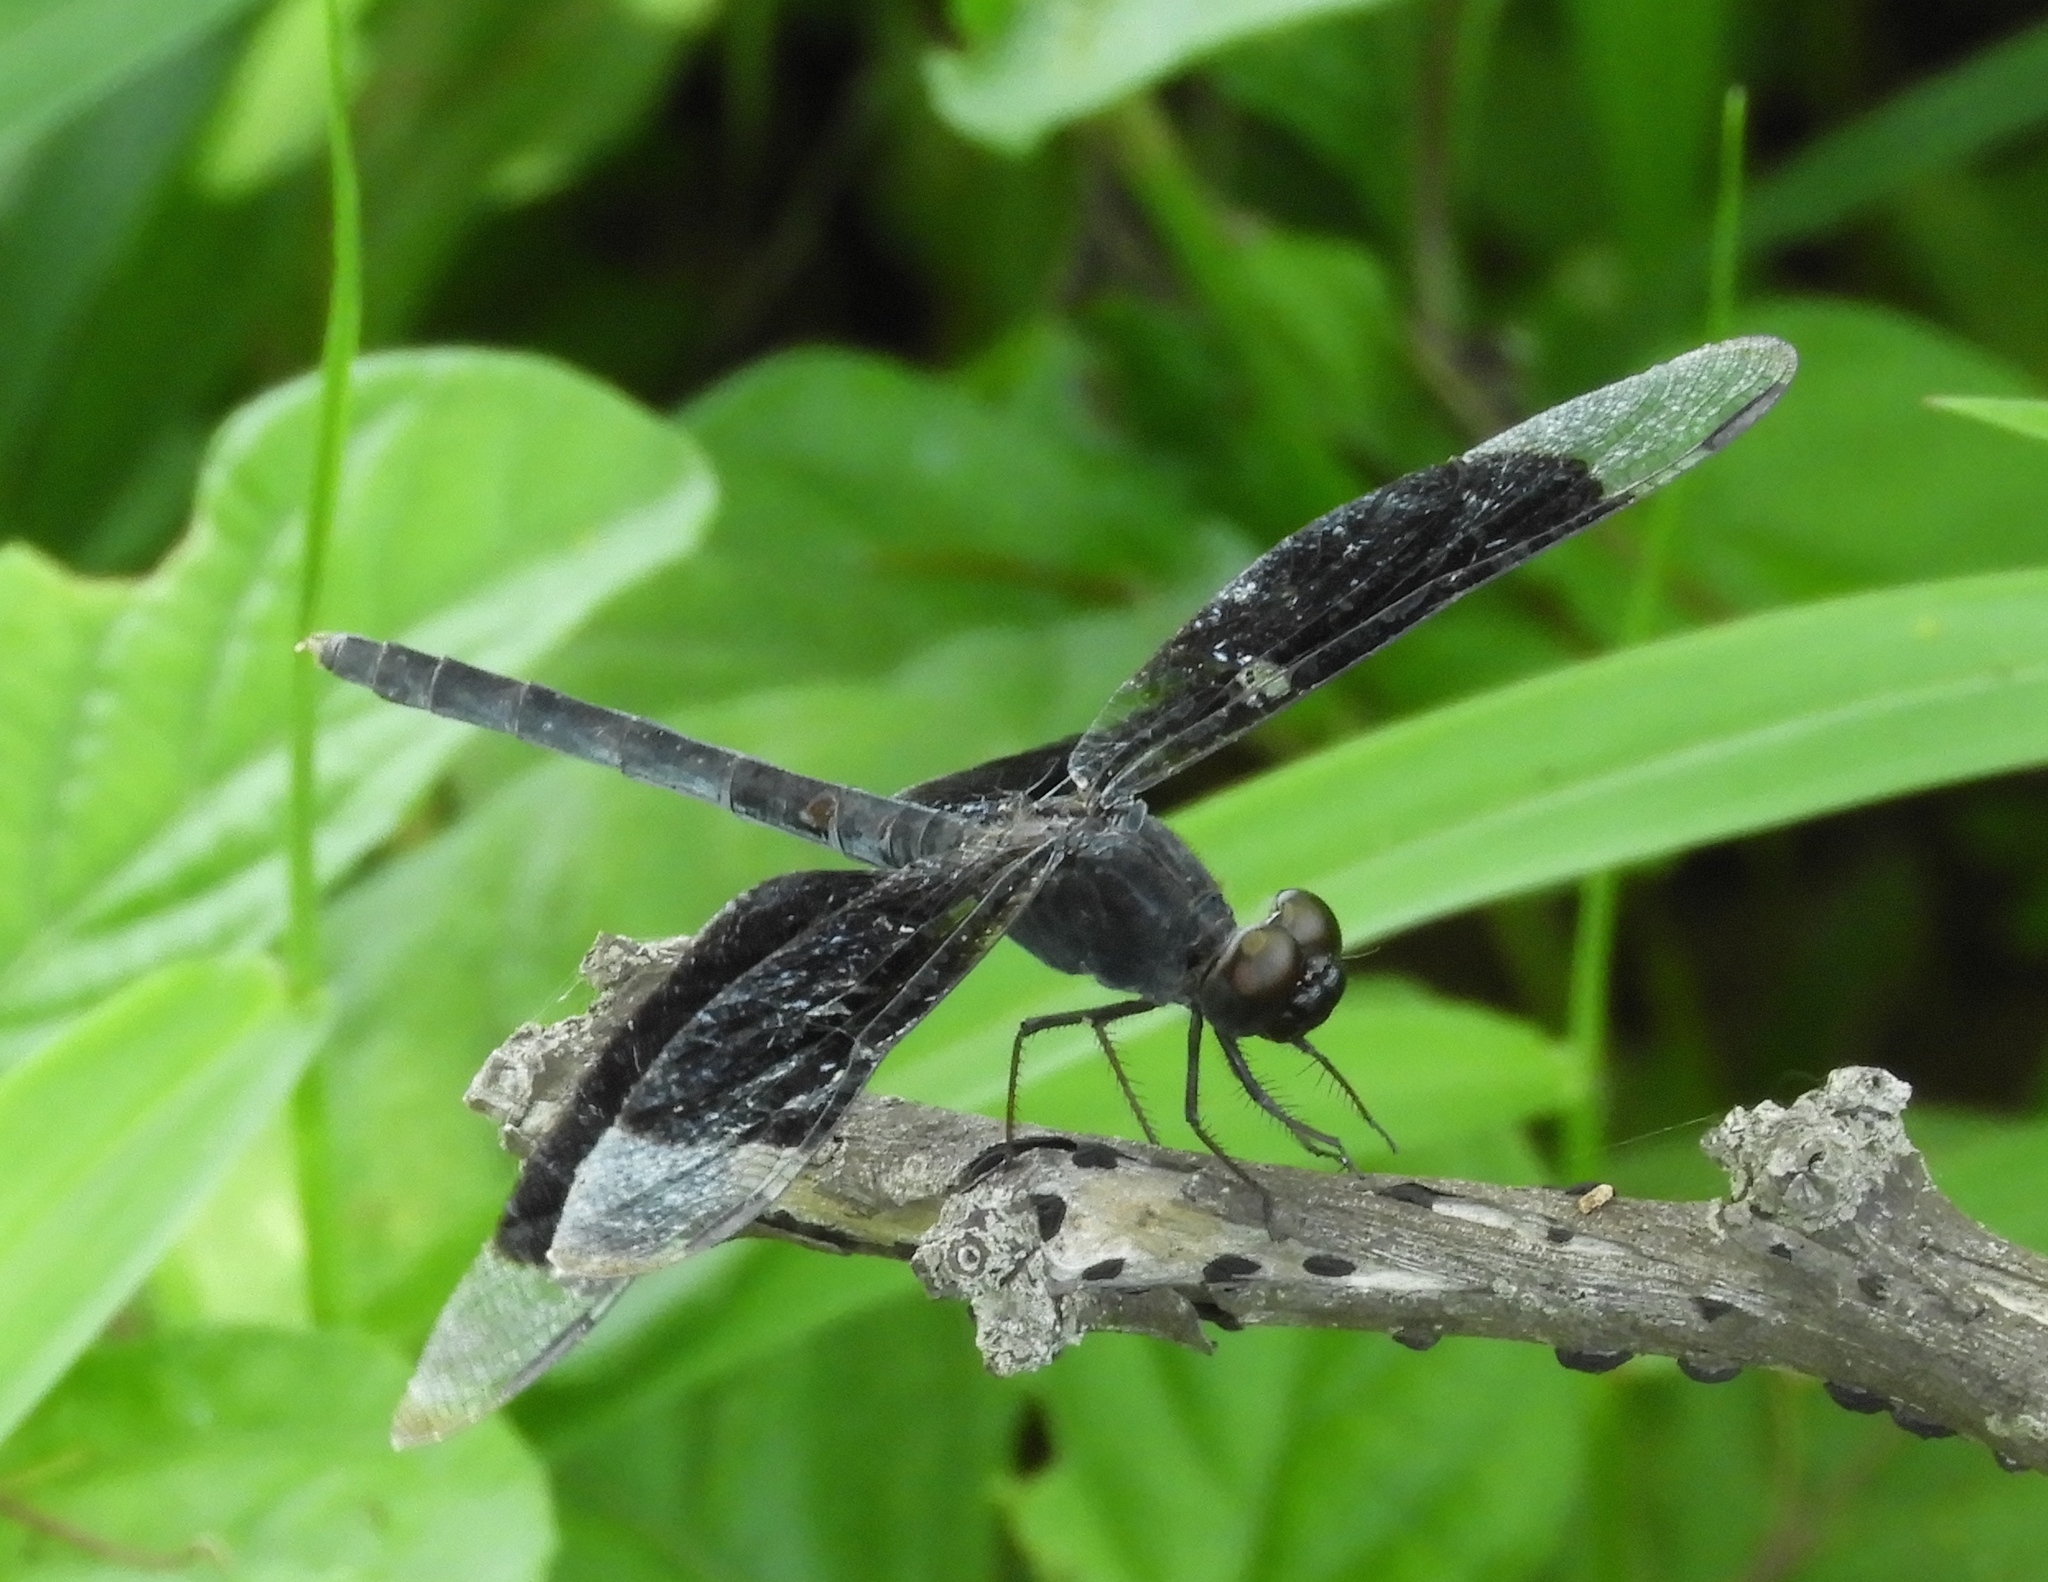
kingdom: Animalia
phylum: Arthropoda
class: Insecta
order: Odonata
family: Libellulidae
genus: Erythrodiplax
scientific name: Erythrodiplax funerea
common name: Black-winged dragonlet
